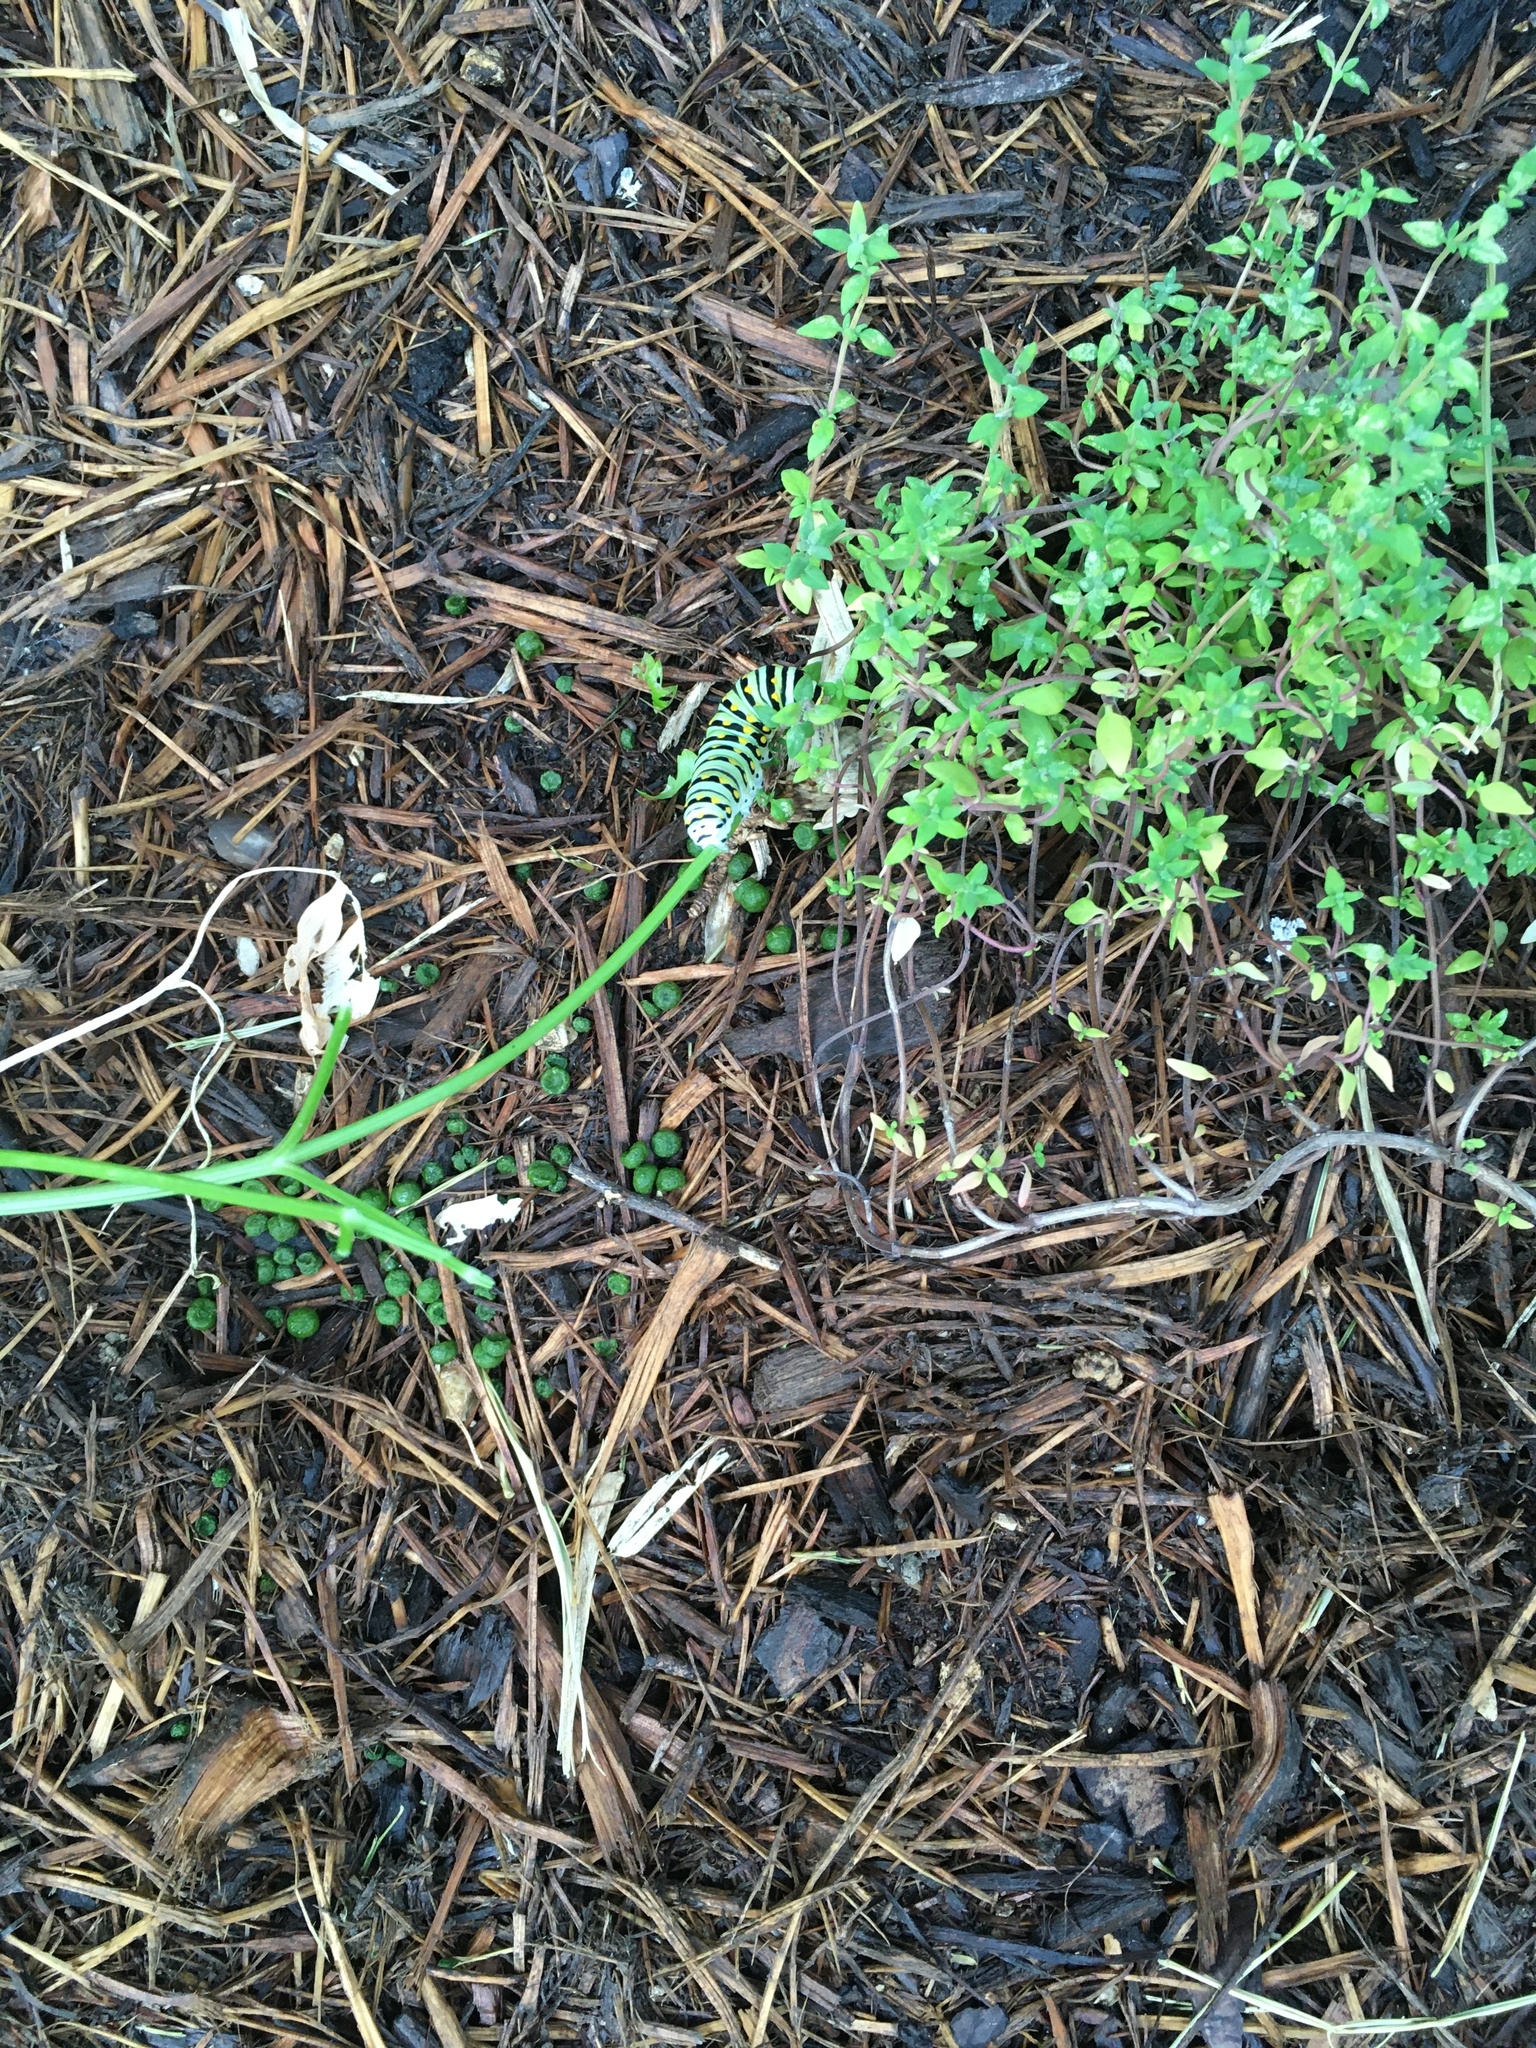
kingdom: Animalia
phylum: Arthropoda
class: Insecta
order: Lepidoptera
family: Papilionidae
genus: Papilio
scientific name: Papilio polyxenes
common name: Black swallowtail
